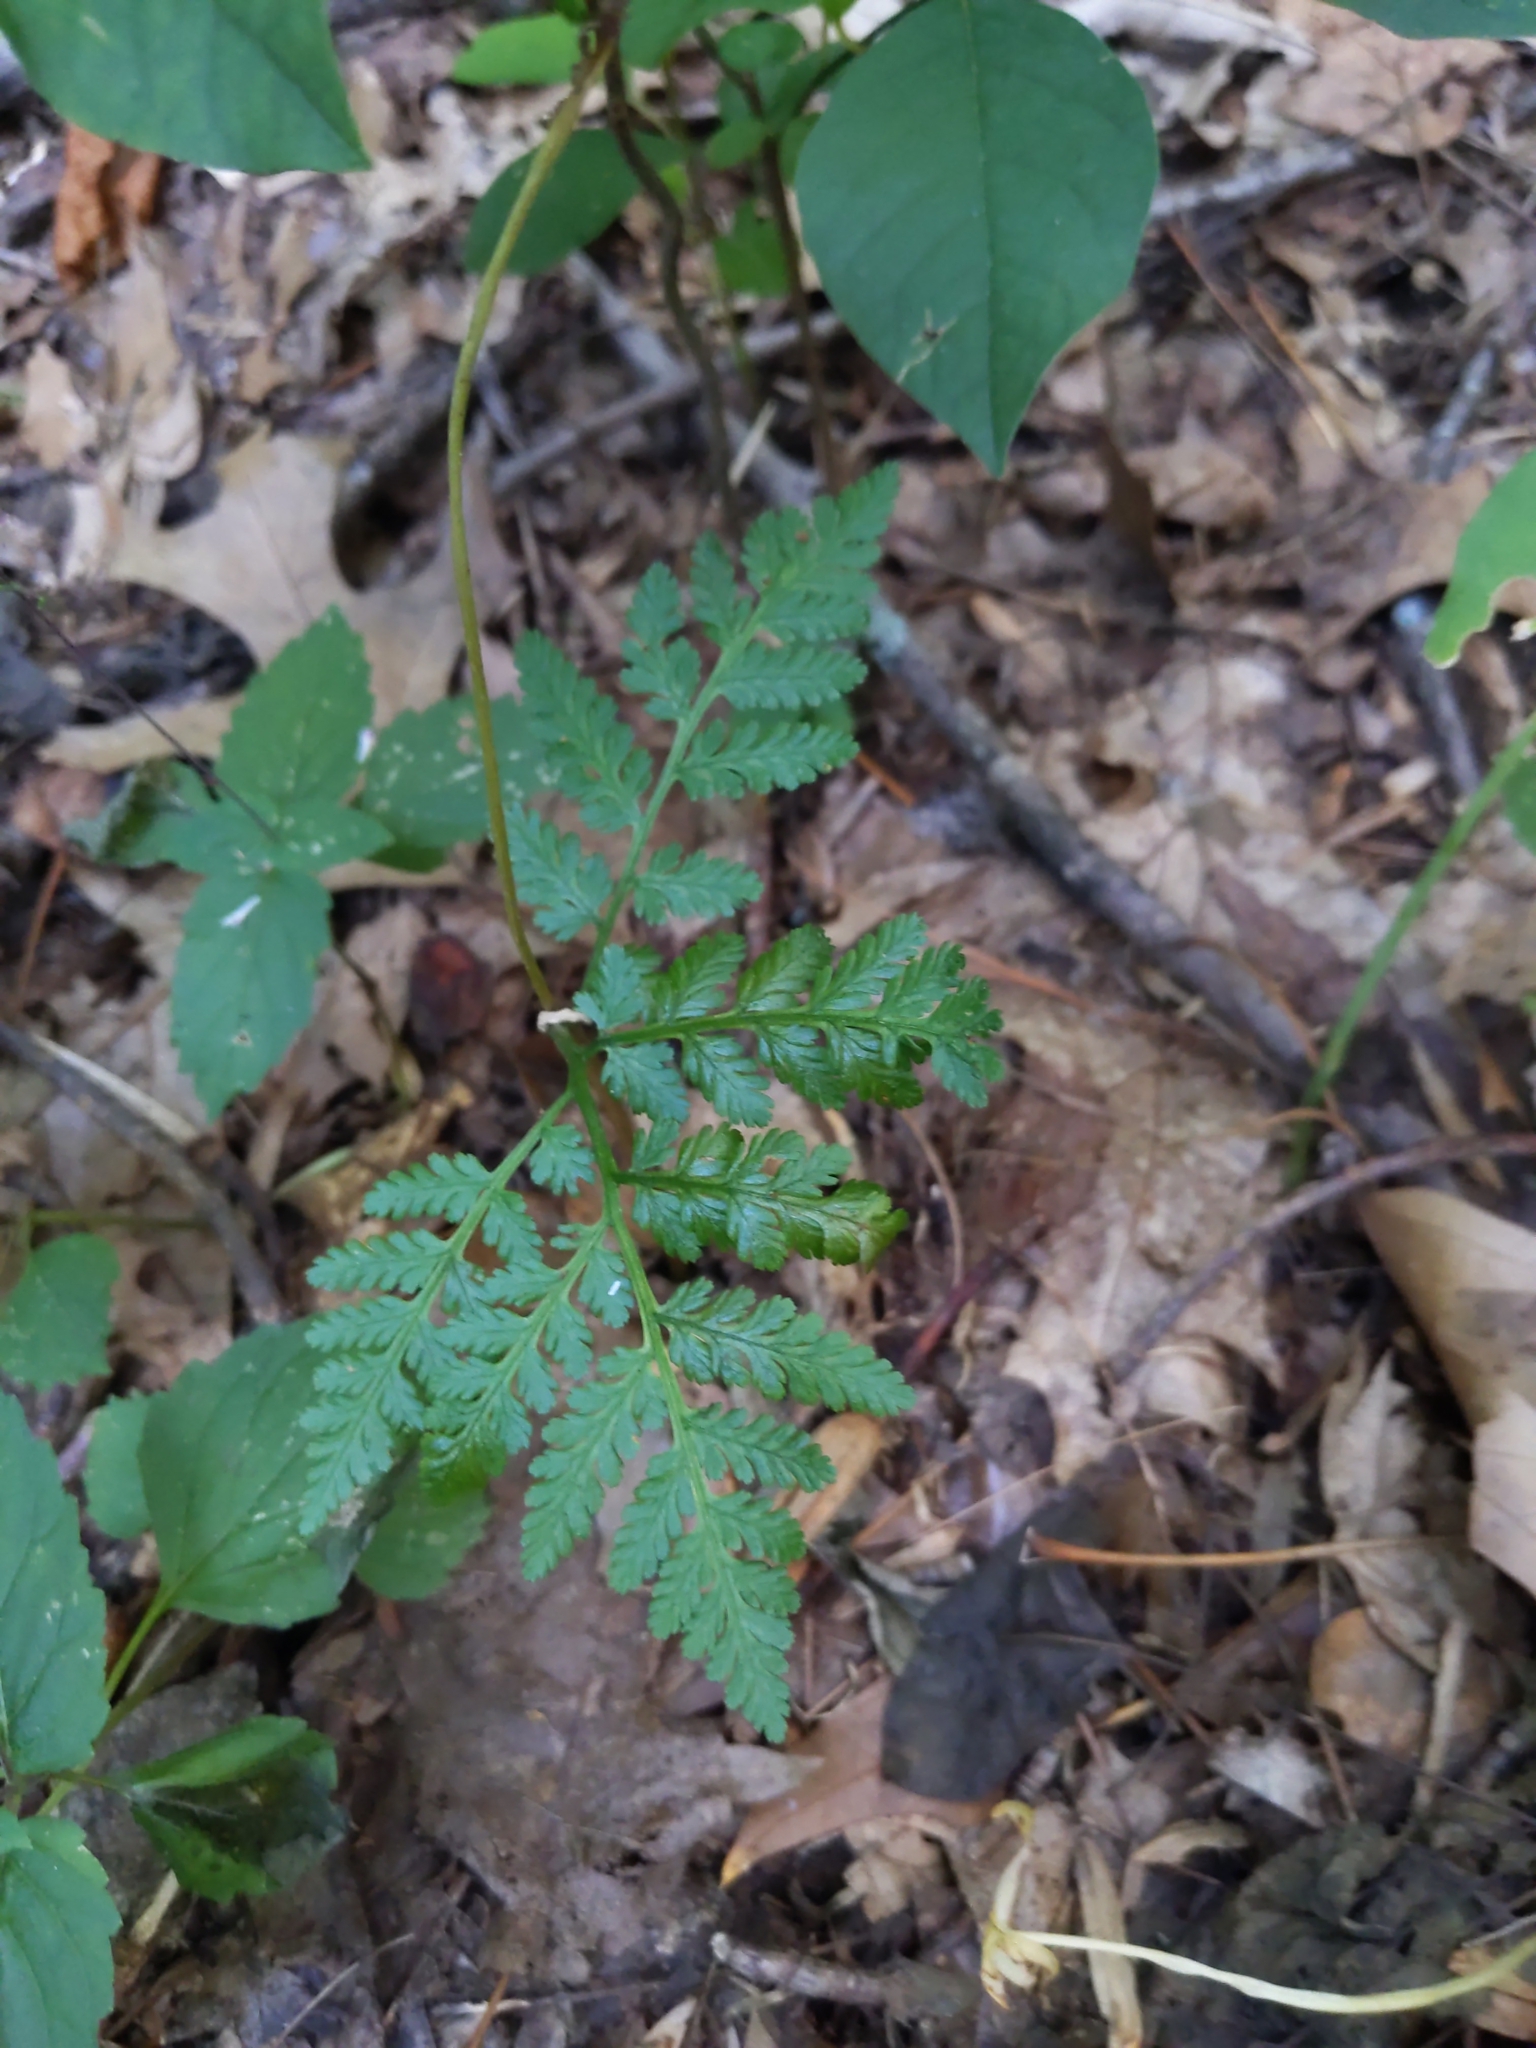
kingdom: Plantae
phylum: Tracheophyta
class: Polypodiopsida
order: Ophioglossales
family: Ophioglossaceae
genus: Botrypus
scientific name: Botrypus virginianus
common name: Common grapefern
